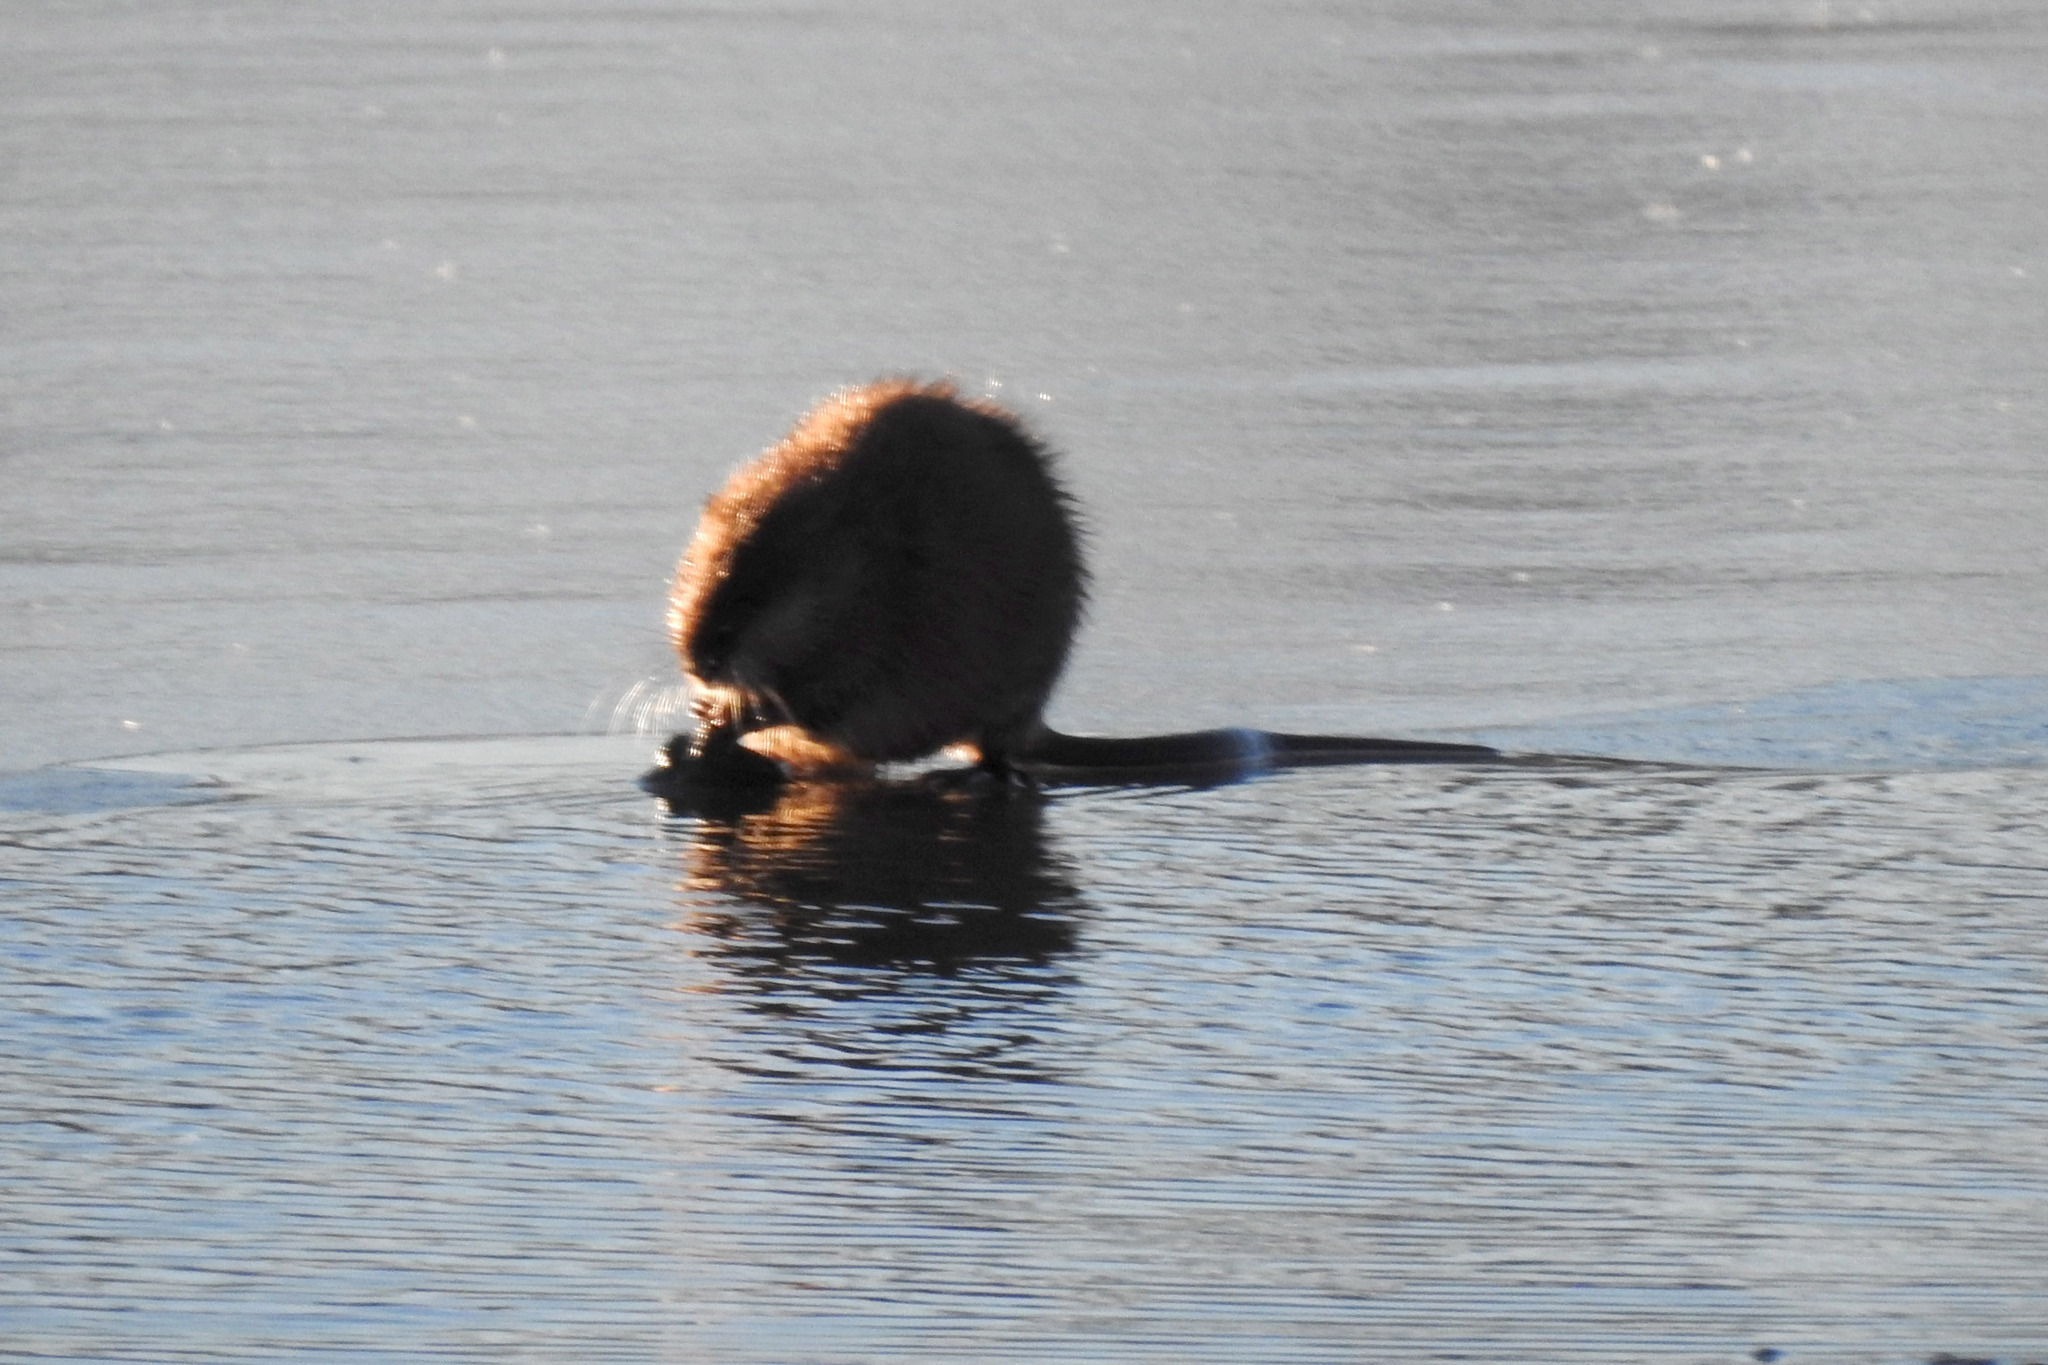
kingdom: Animalia
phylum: Chordata
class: Mammalia
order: Rodentia
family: Cricetidae
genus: Ondatra
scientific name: Ondatra zibethicus
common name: Muskrat
